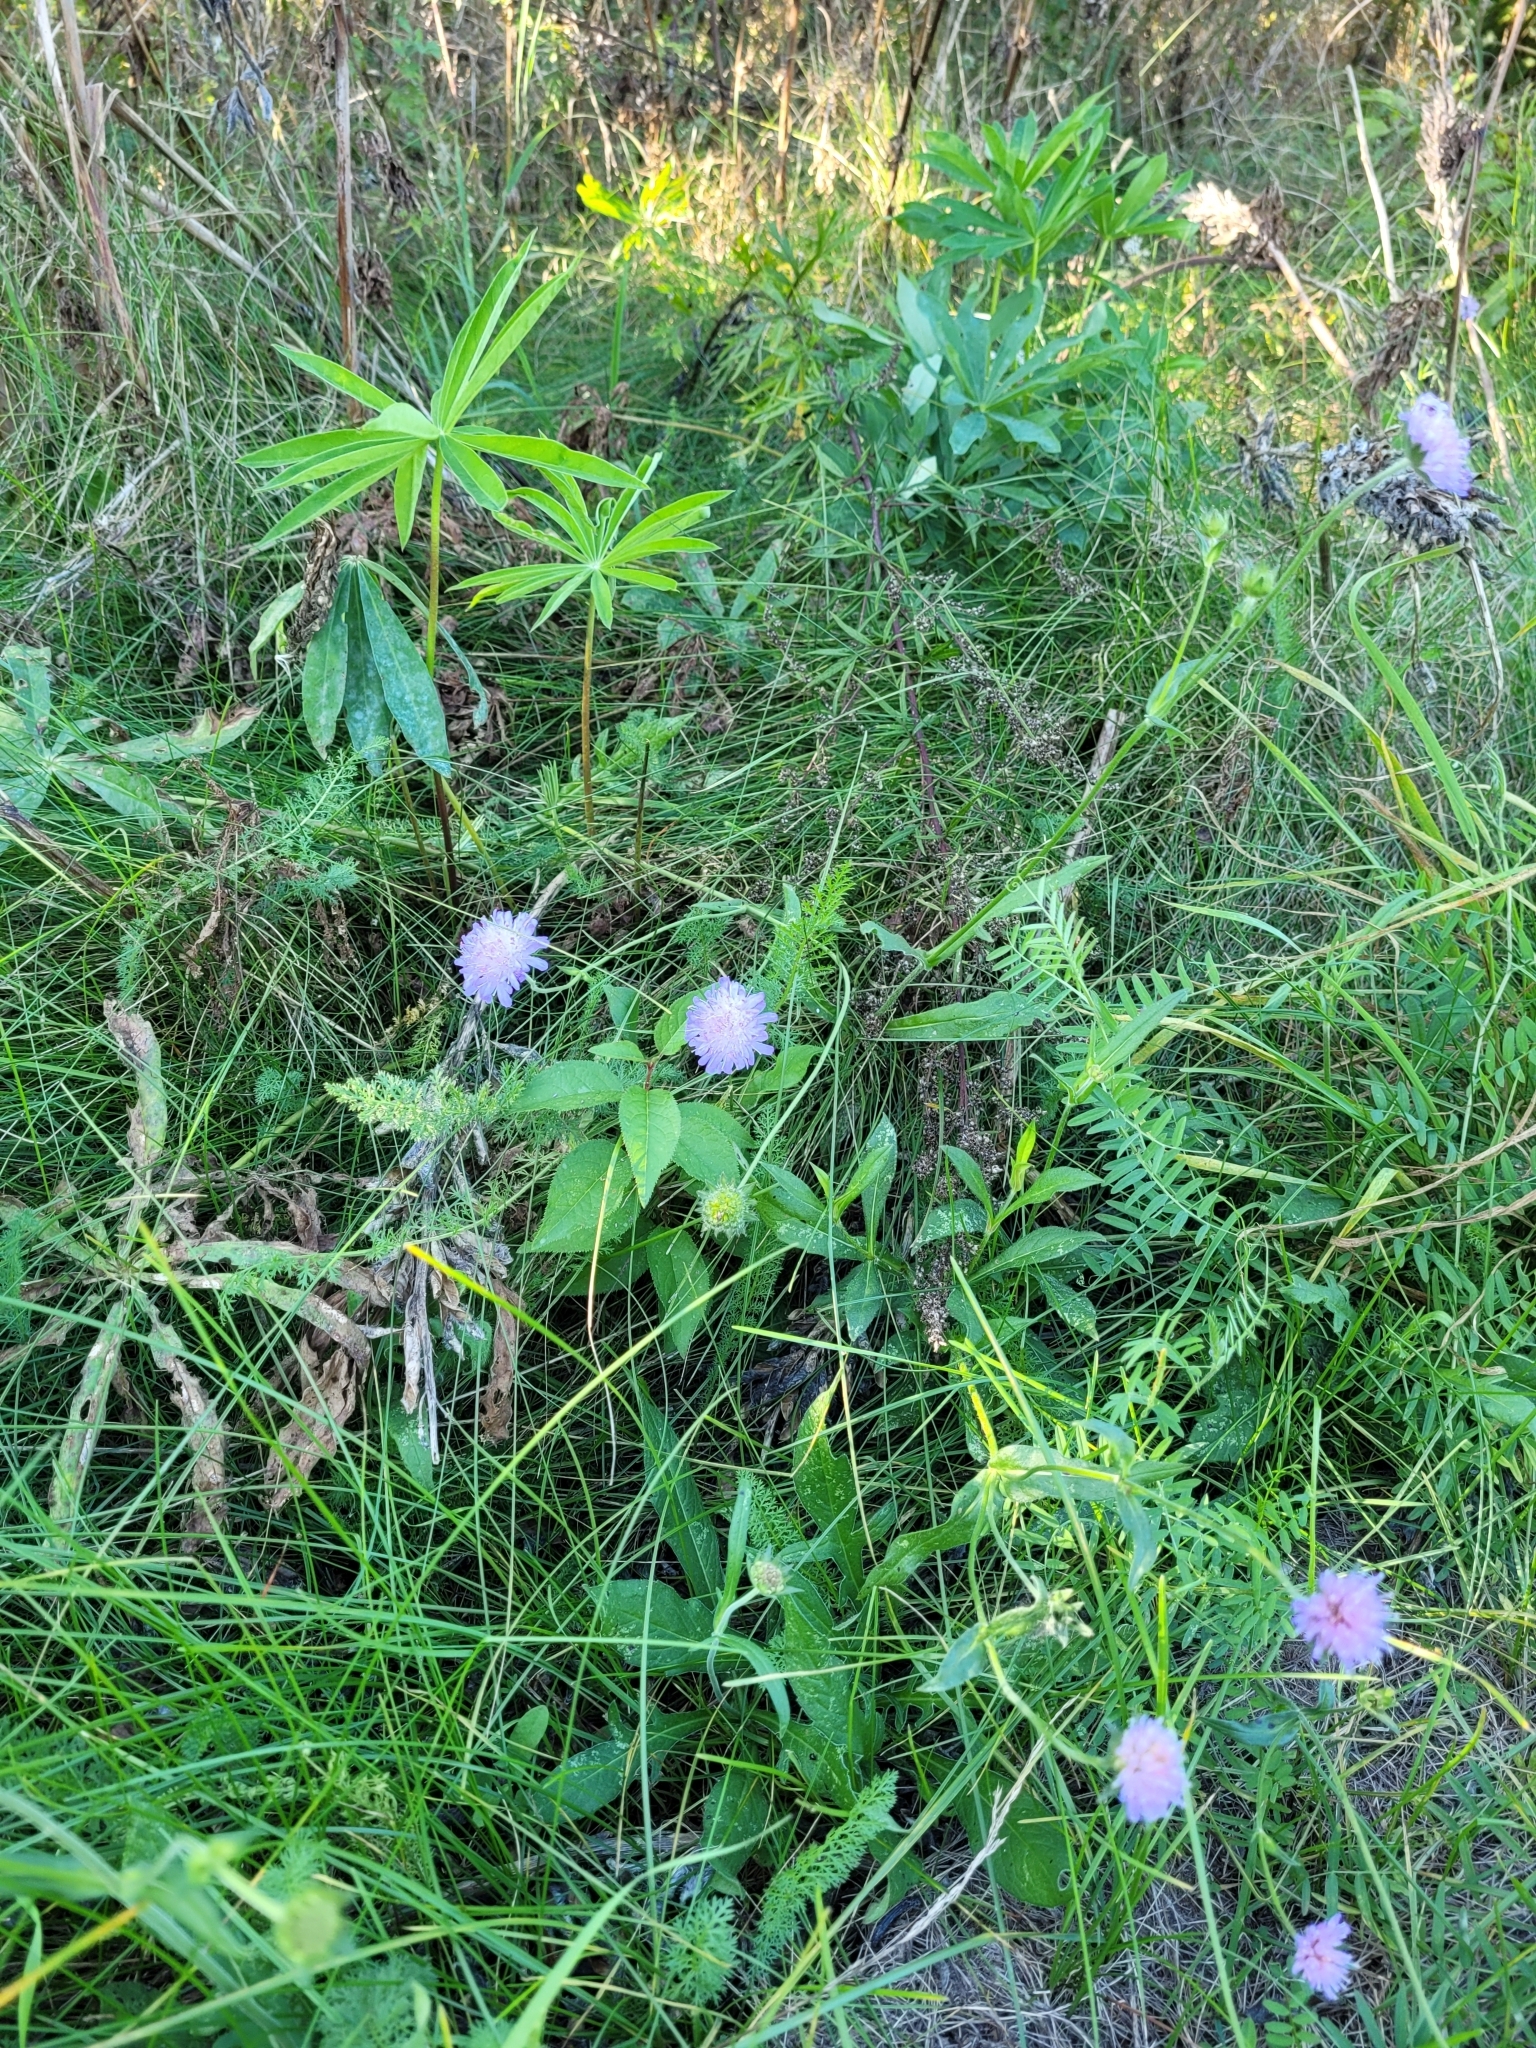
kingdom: Plantae
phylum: Tracheophyta
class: Magnoliopsida
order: Dipsacales
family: Caprifoliaceae
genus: Knautia
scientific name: Knautia arvensis
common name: Field scabiosa
